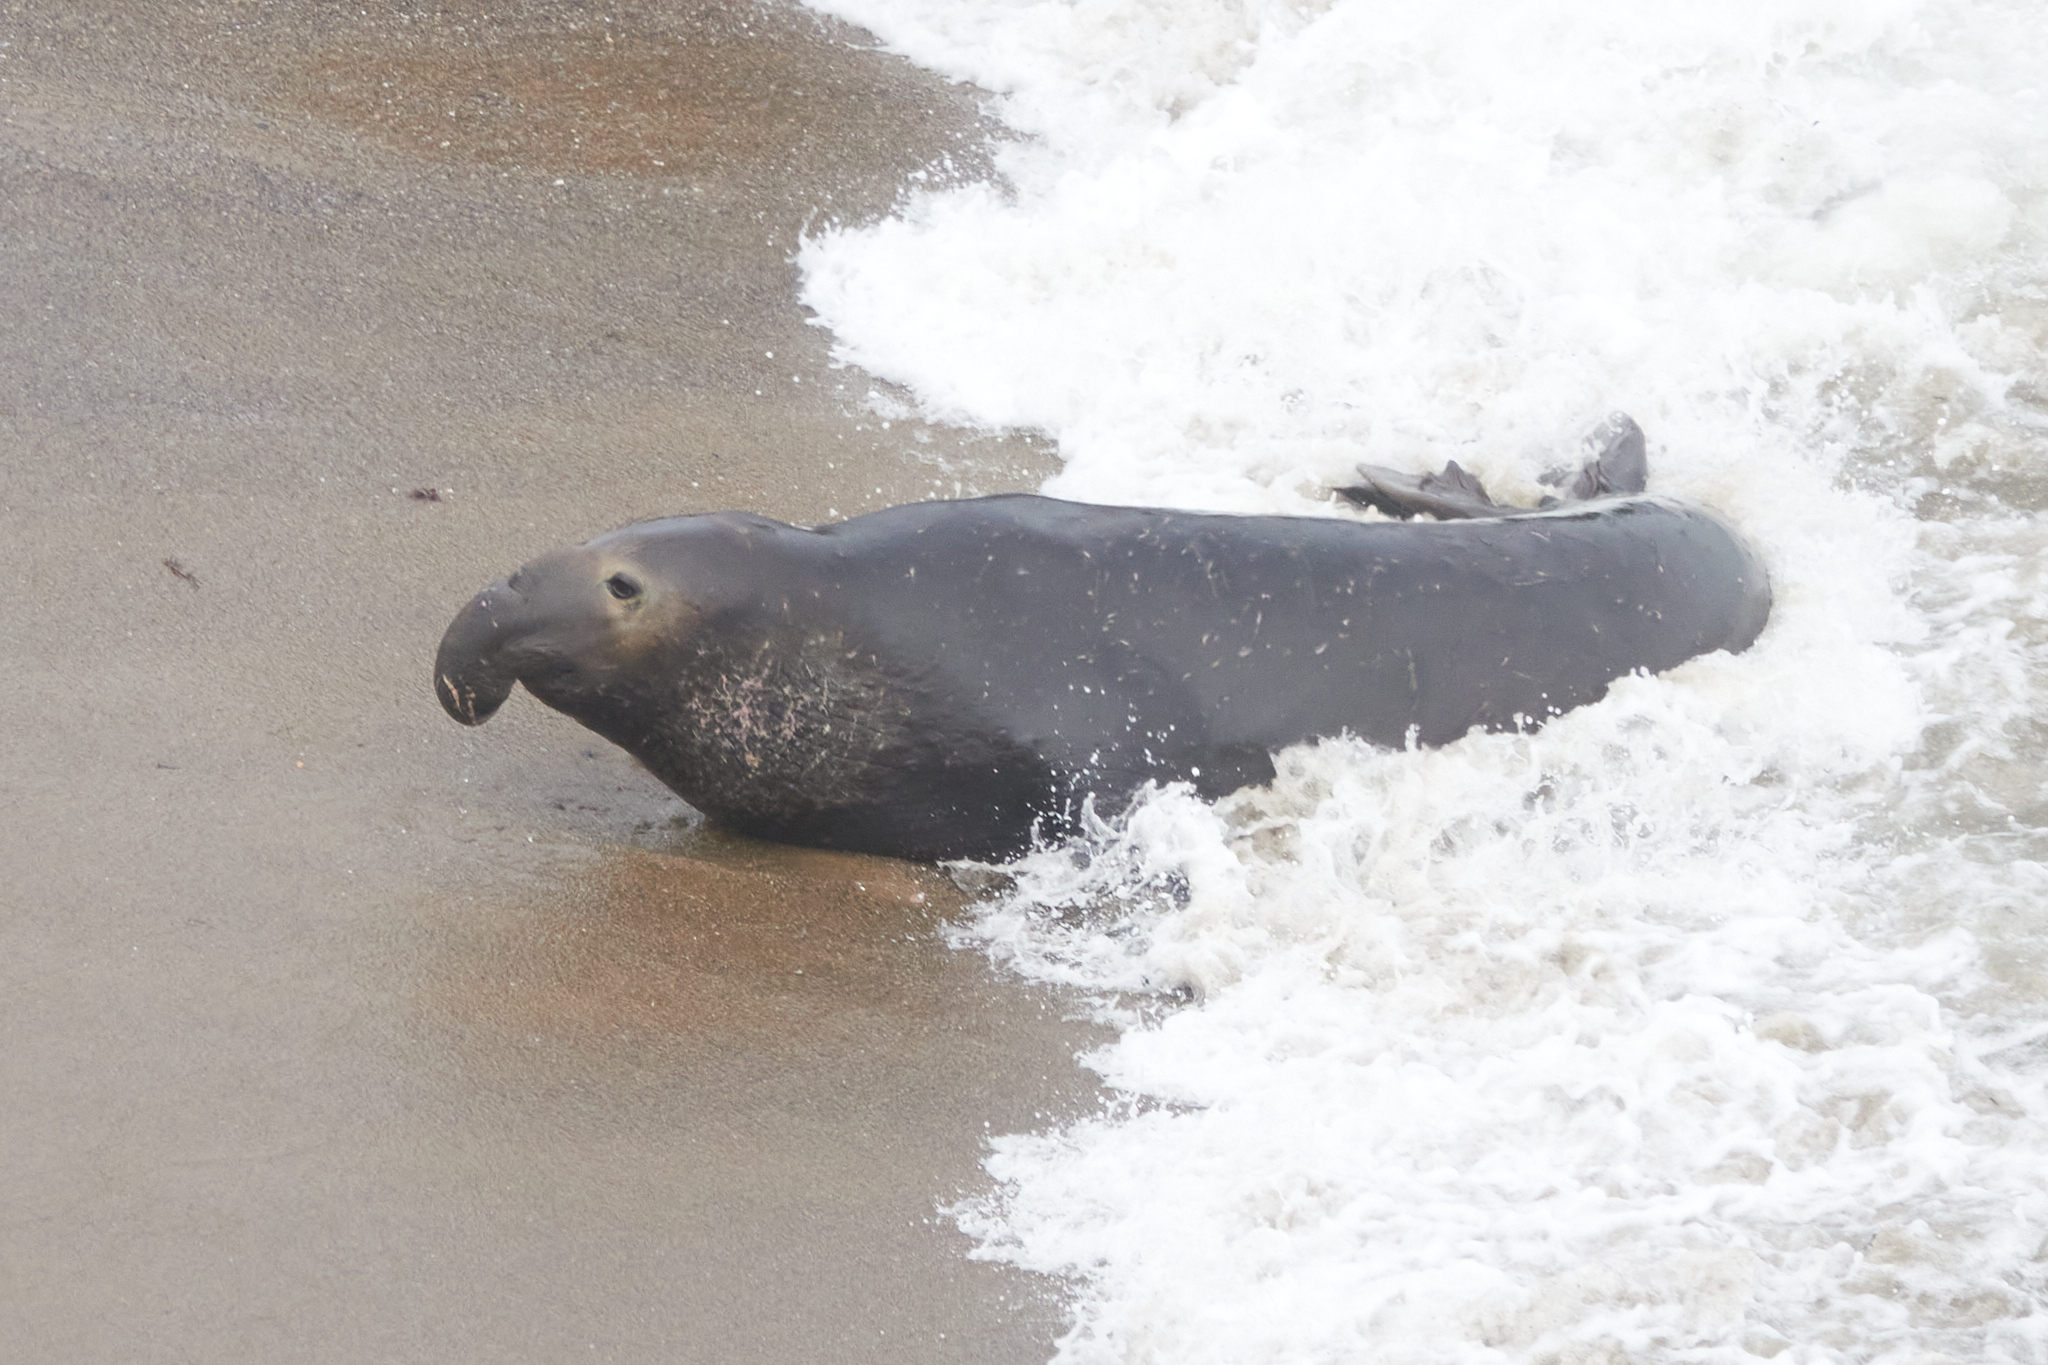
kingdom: Animalia
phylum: Chordata
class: Mammalia
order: Carnivora
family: Phocidae
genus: Mirounga
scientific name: Mirounga angustirostris
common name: Northern elephant seal
